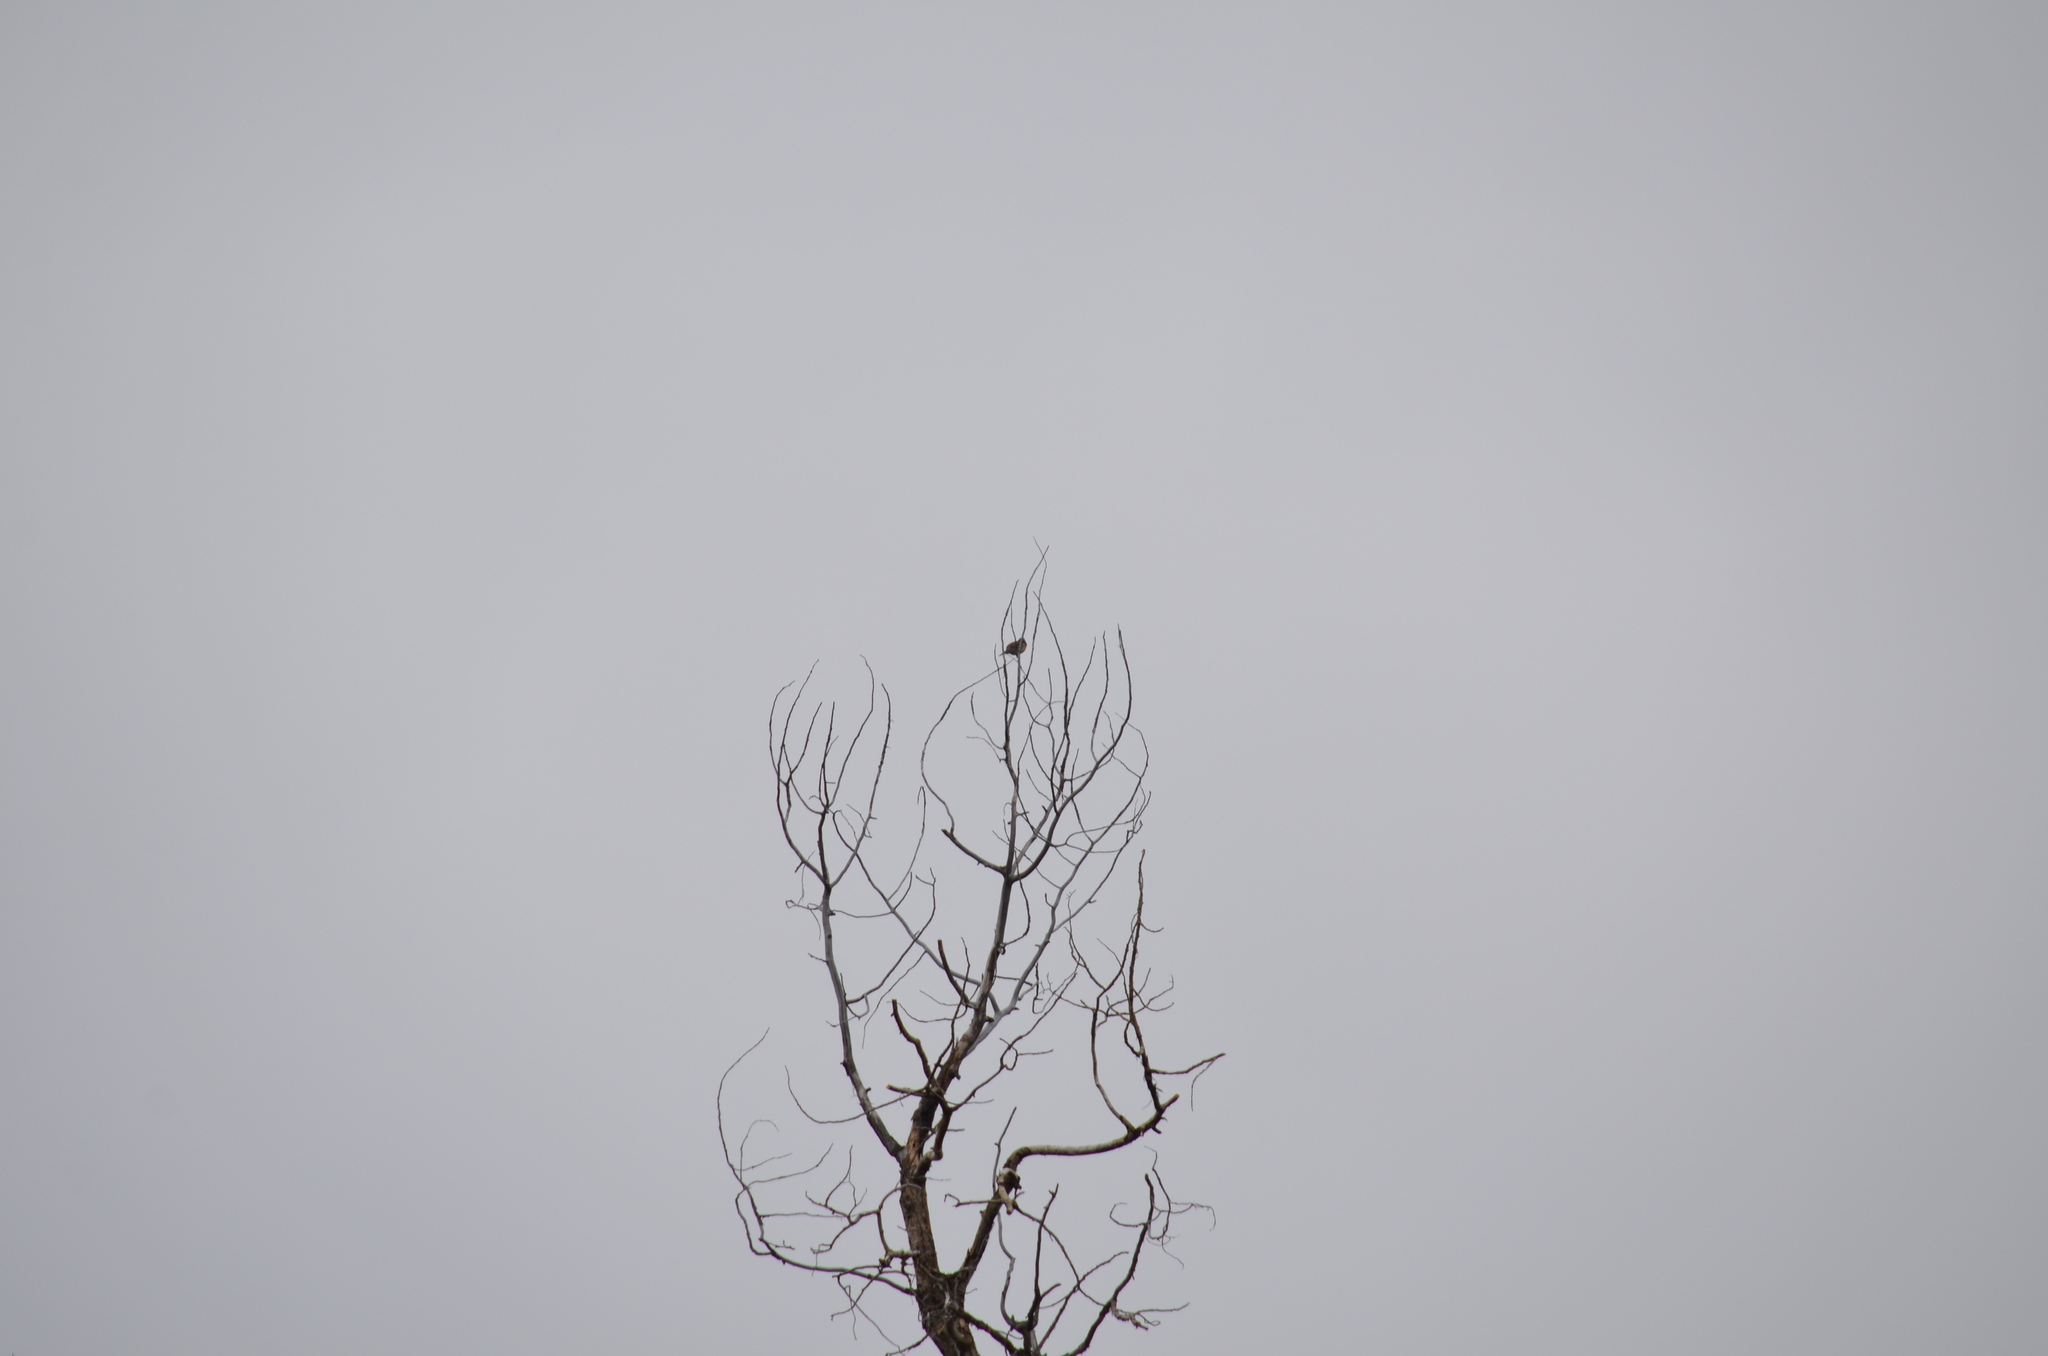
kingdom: Animalia
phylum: Chordata
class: Aves
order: Passeriformes
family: Icteridae
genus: Sturnella
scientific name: Sturnella neglecta
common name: Western meadowlark
